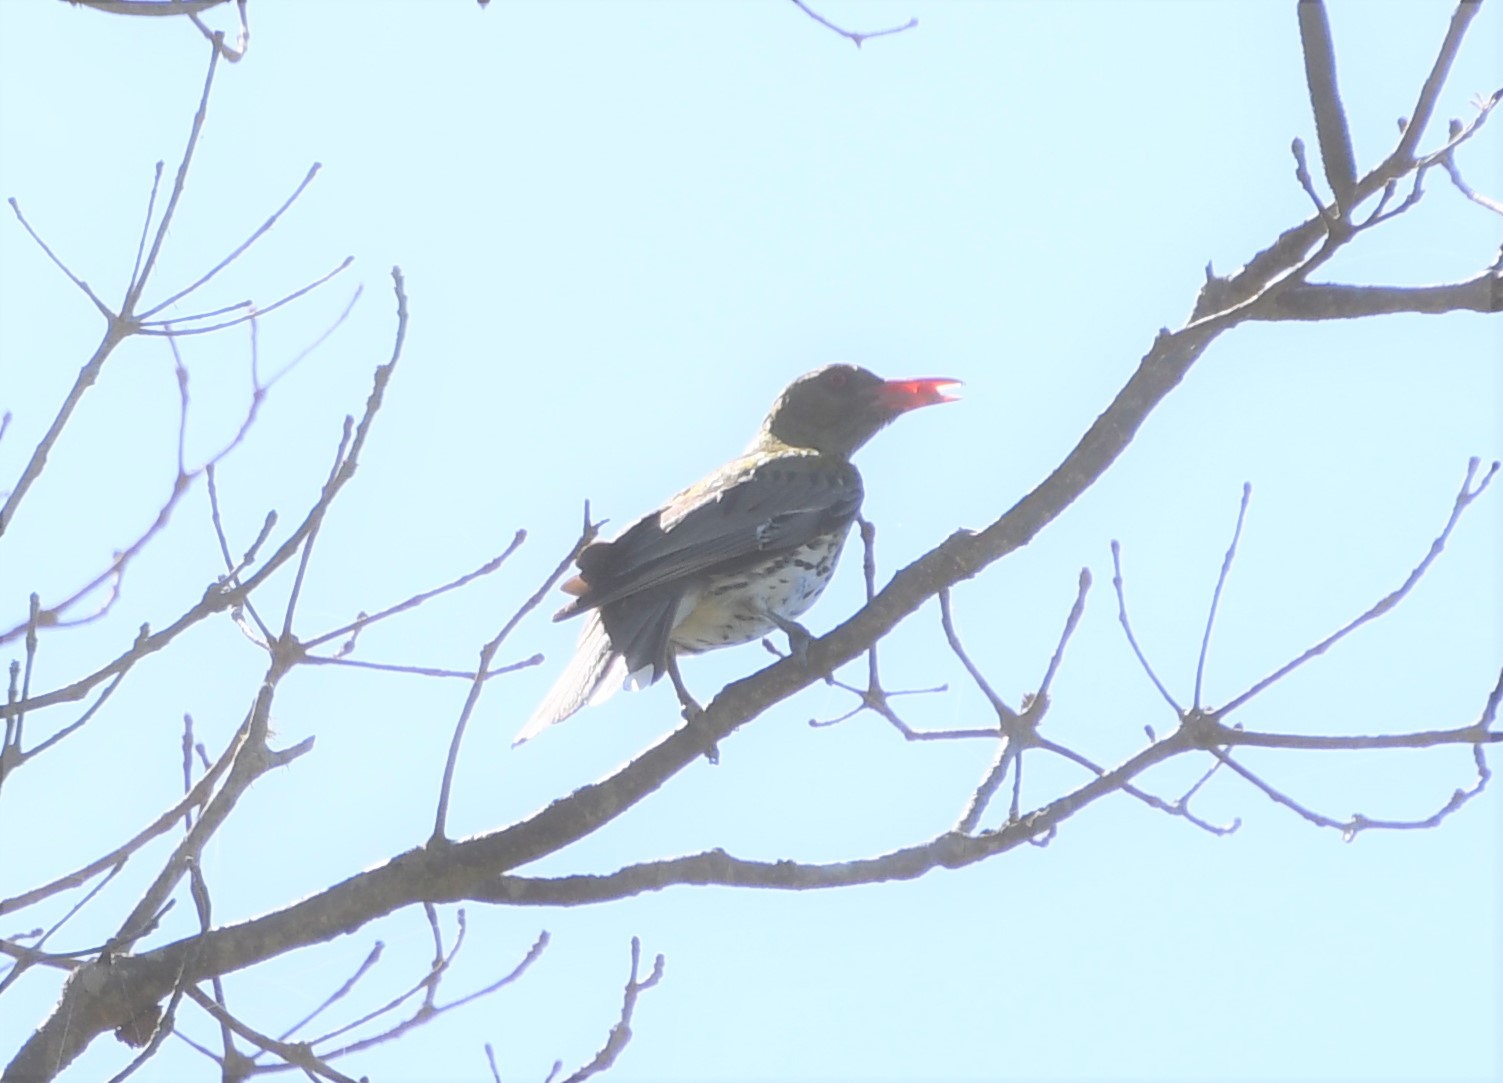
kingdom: Animalia
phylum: Chordata
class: Aves
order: Passeriformes
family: Oriolidae
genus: Oriolus
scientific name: Oriolus sagittatus
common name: Olive-backed oriole
